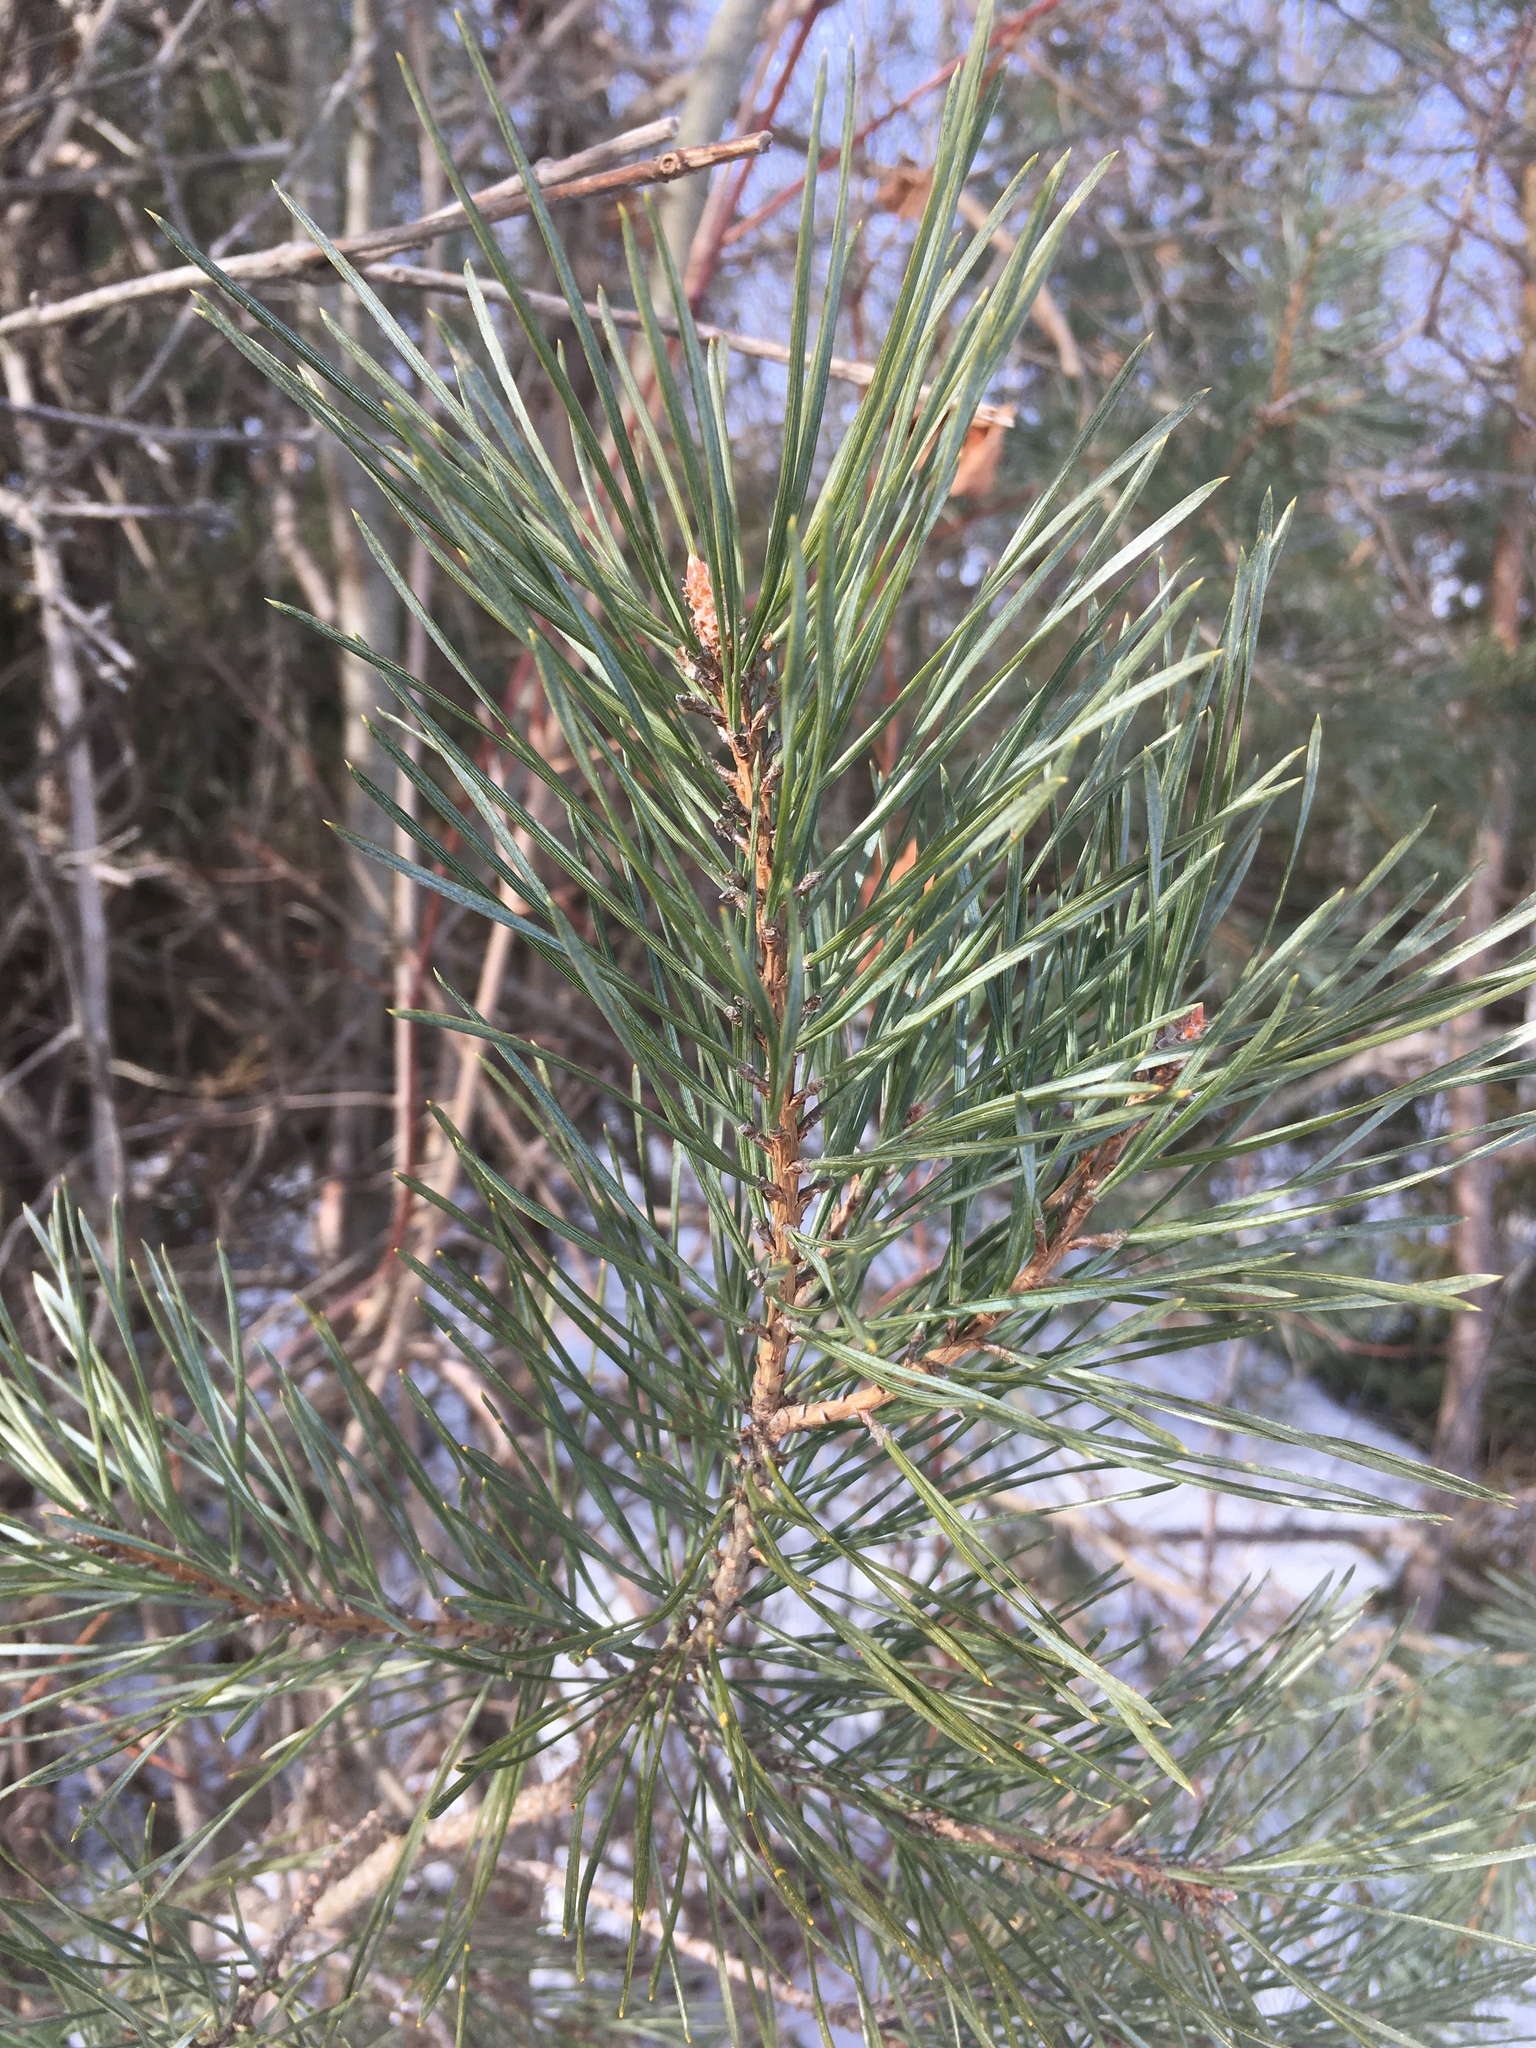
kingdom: Plantae
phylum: Tracheophyta
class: Pinopsida
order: Pinales
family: Pinaceae
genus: Pinus
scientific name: Pinus sylvestris
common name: Scots pine
